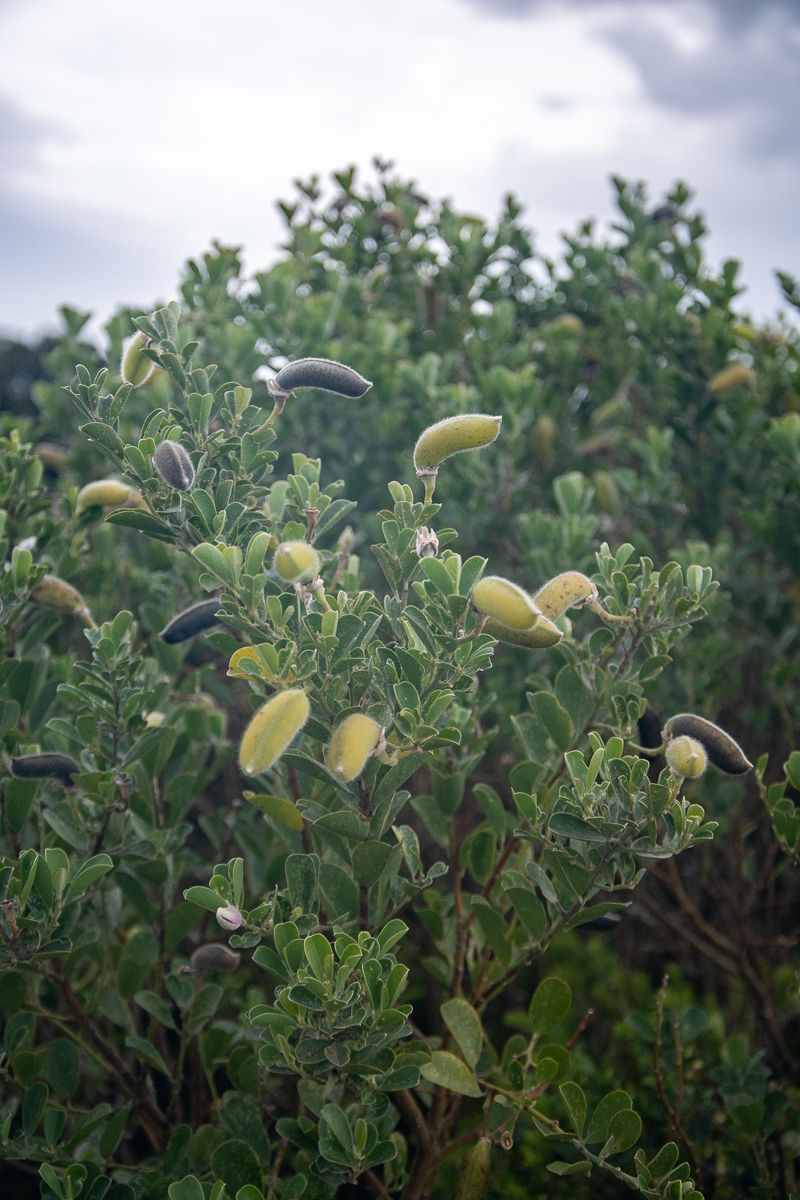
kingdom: Plantae
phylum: Tracheophyta
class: Magnoliopsida
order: Fabales
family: Fabaceae
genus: Podalyria
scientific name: Podalyria calyptrata
